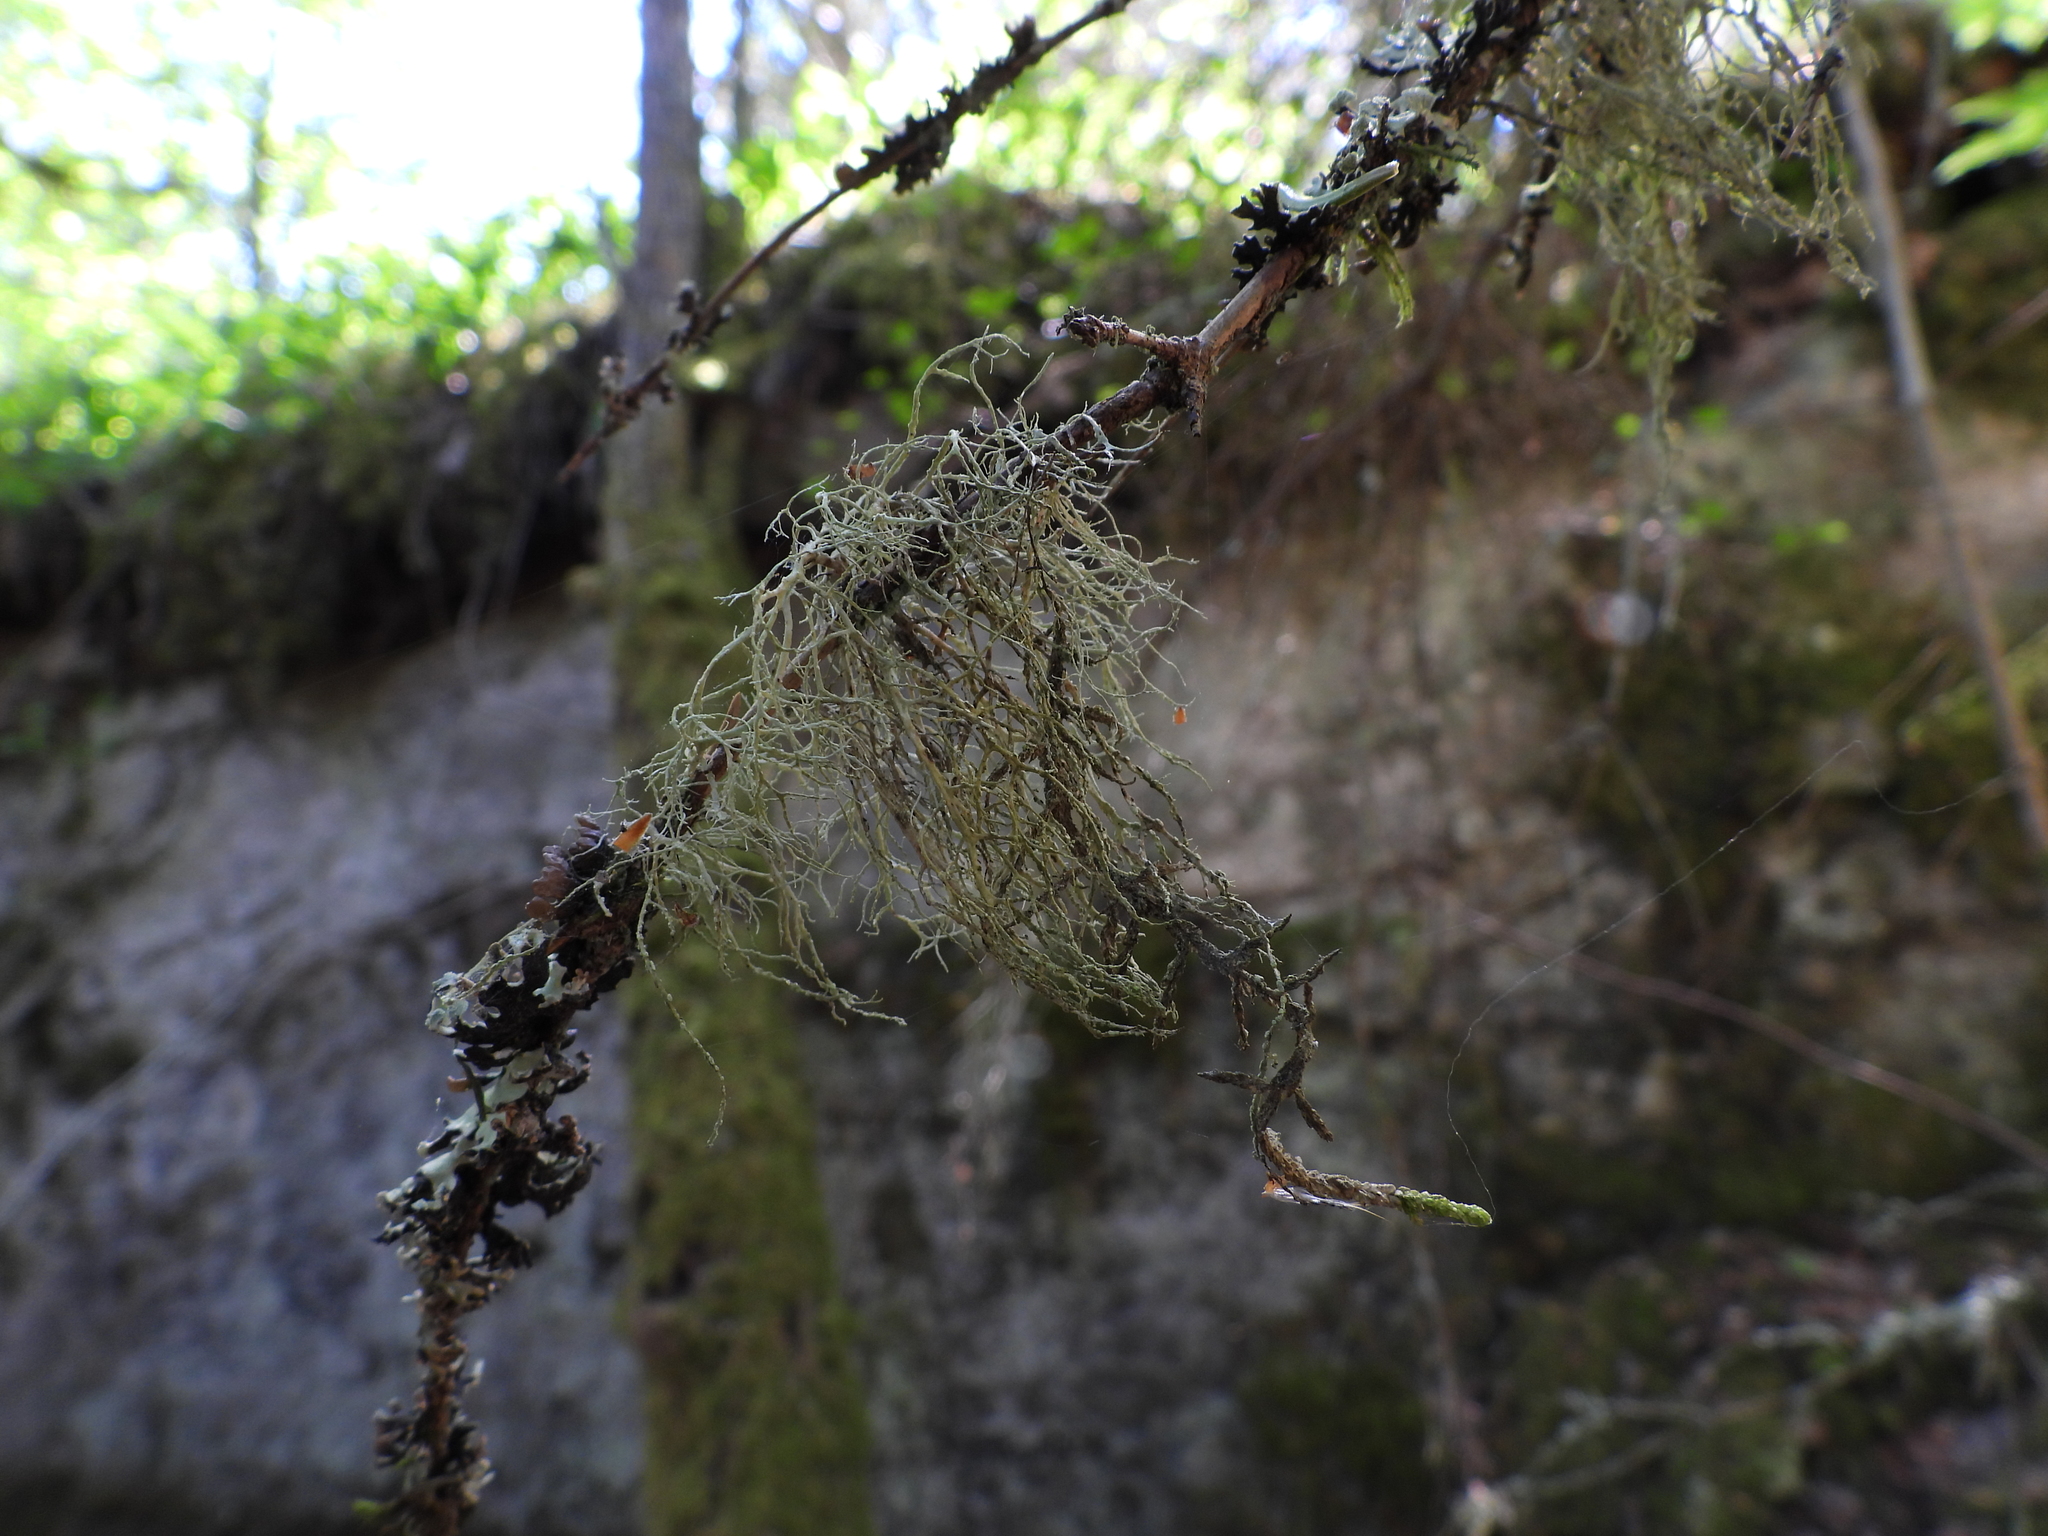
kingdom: Fungi
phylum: Ascomycota
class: Lecanoromycetes
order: Lecanorales
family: Ramalinaceae
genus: Ramalina
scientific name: Ramalina farinacea
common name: Farinose cartilage lichen
